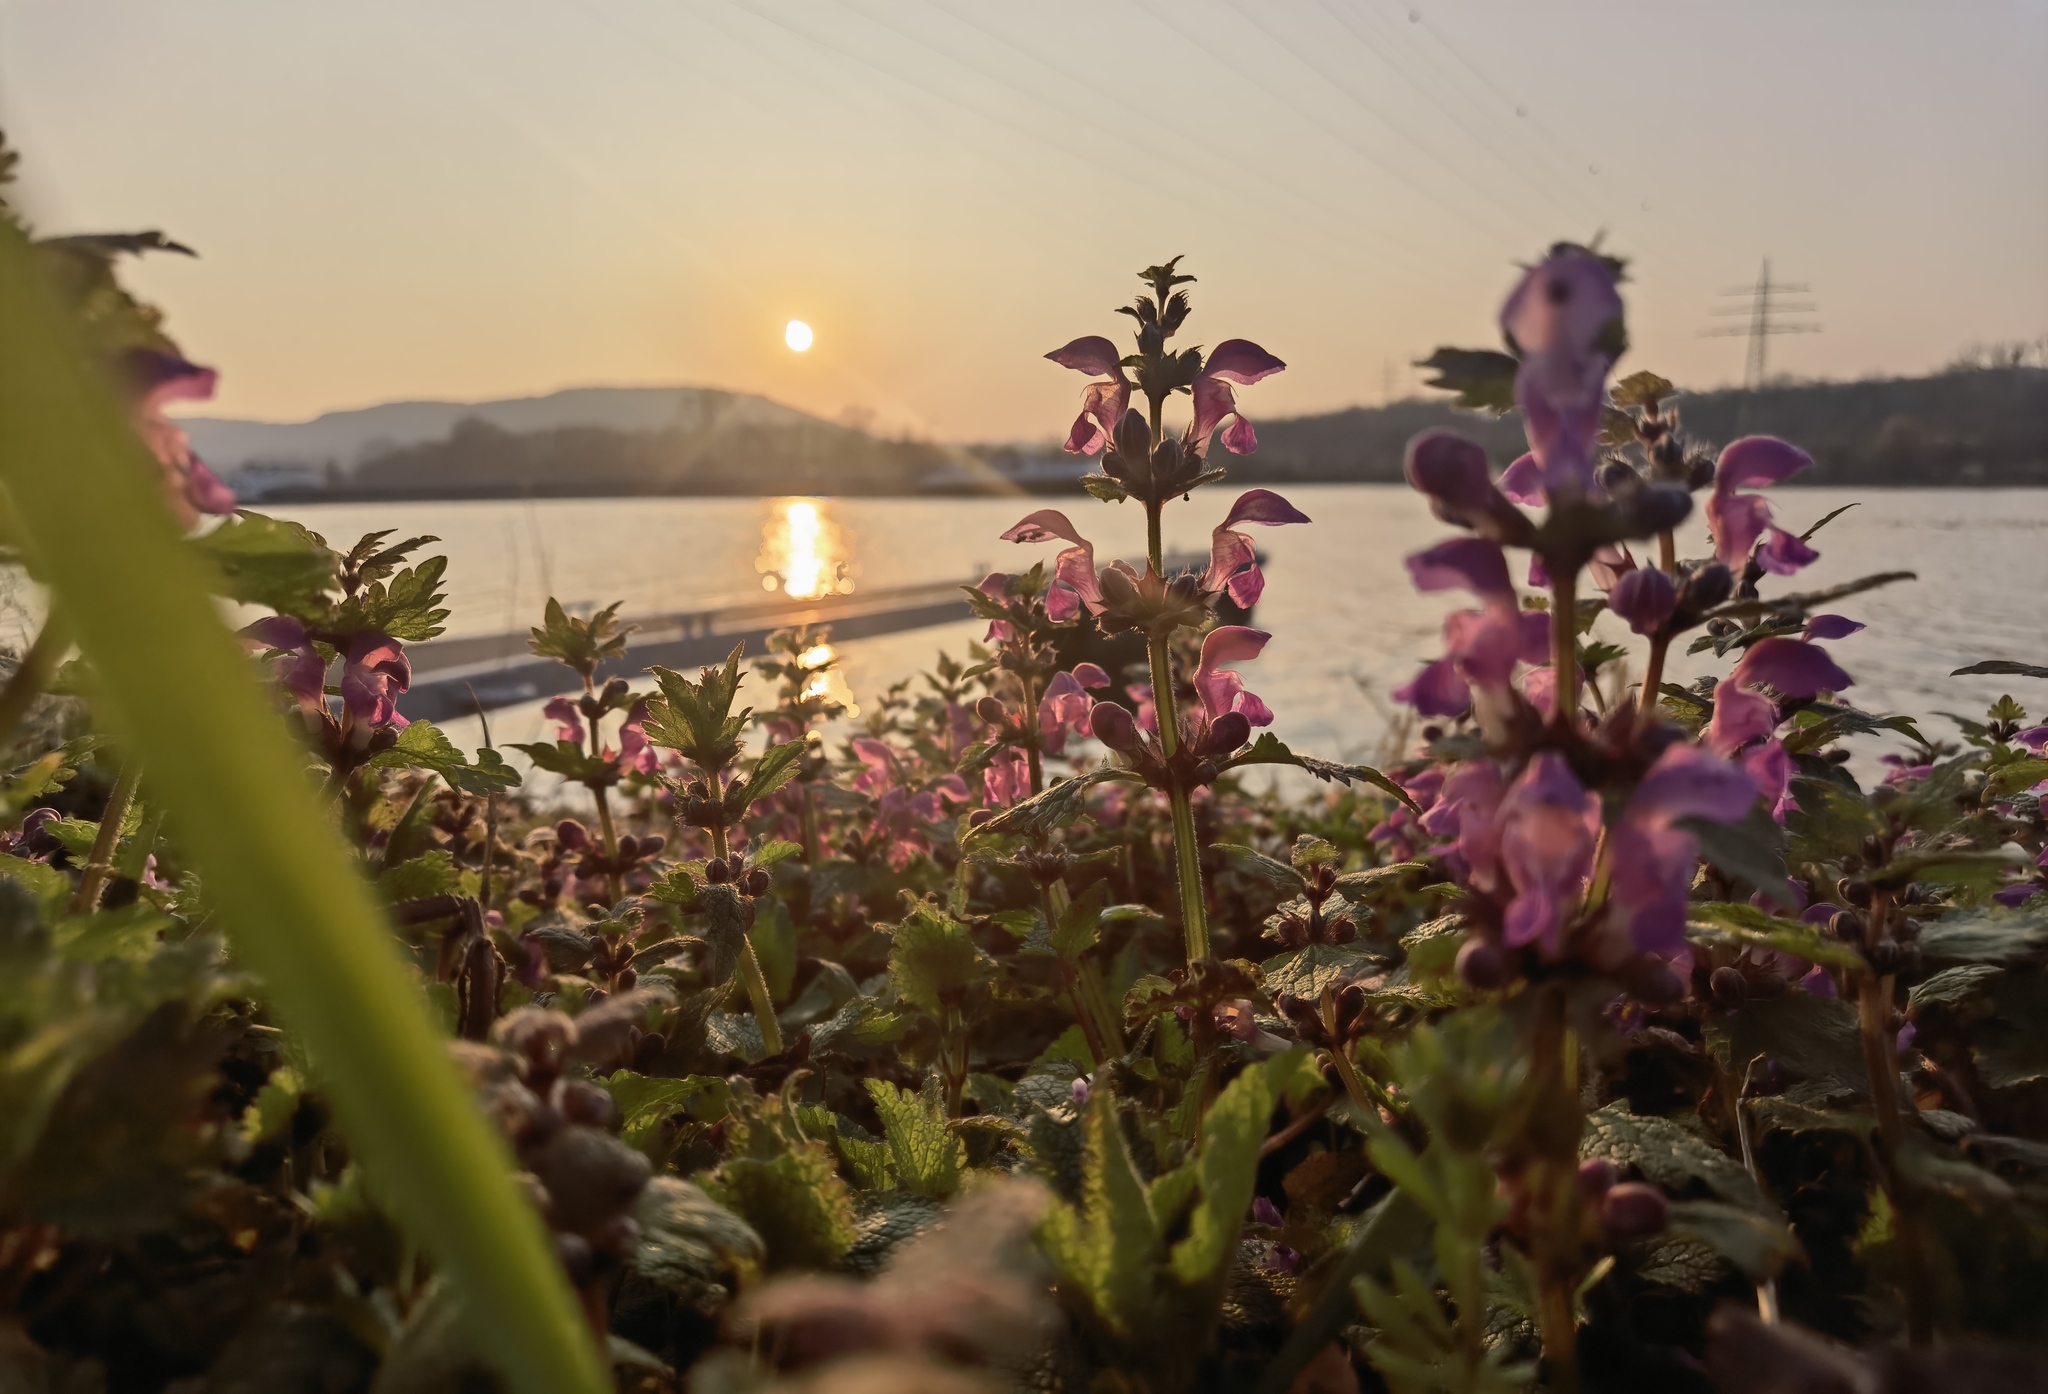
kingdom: Plantae
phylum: Tracheophyta
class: Magnoliopsida
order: Lamiales
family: Lamiaceae
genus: Lamium
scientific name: Lamium maculatum
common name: Spotted dead-nettle
